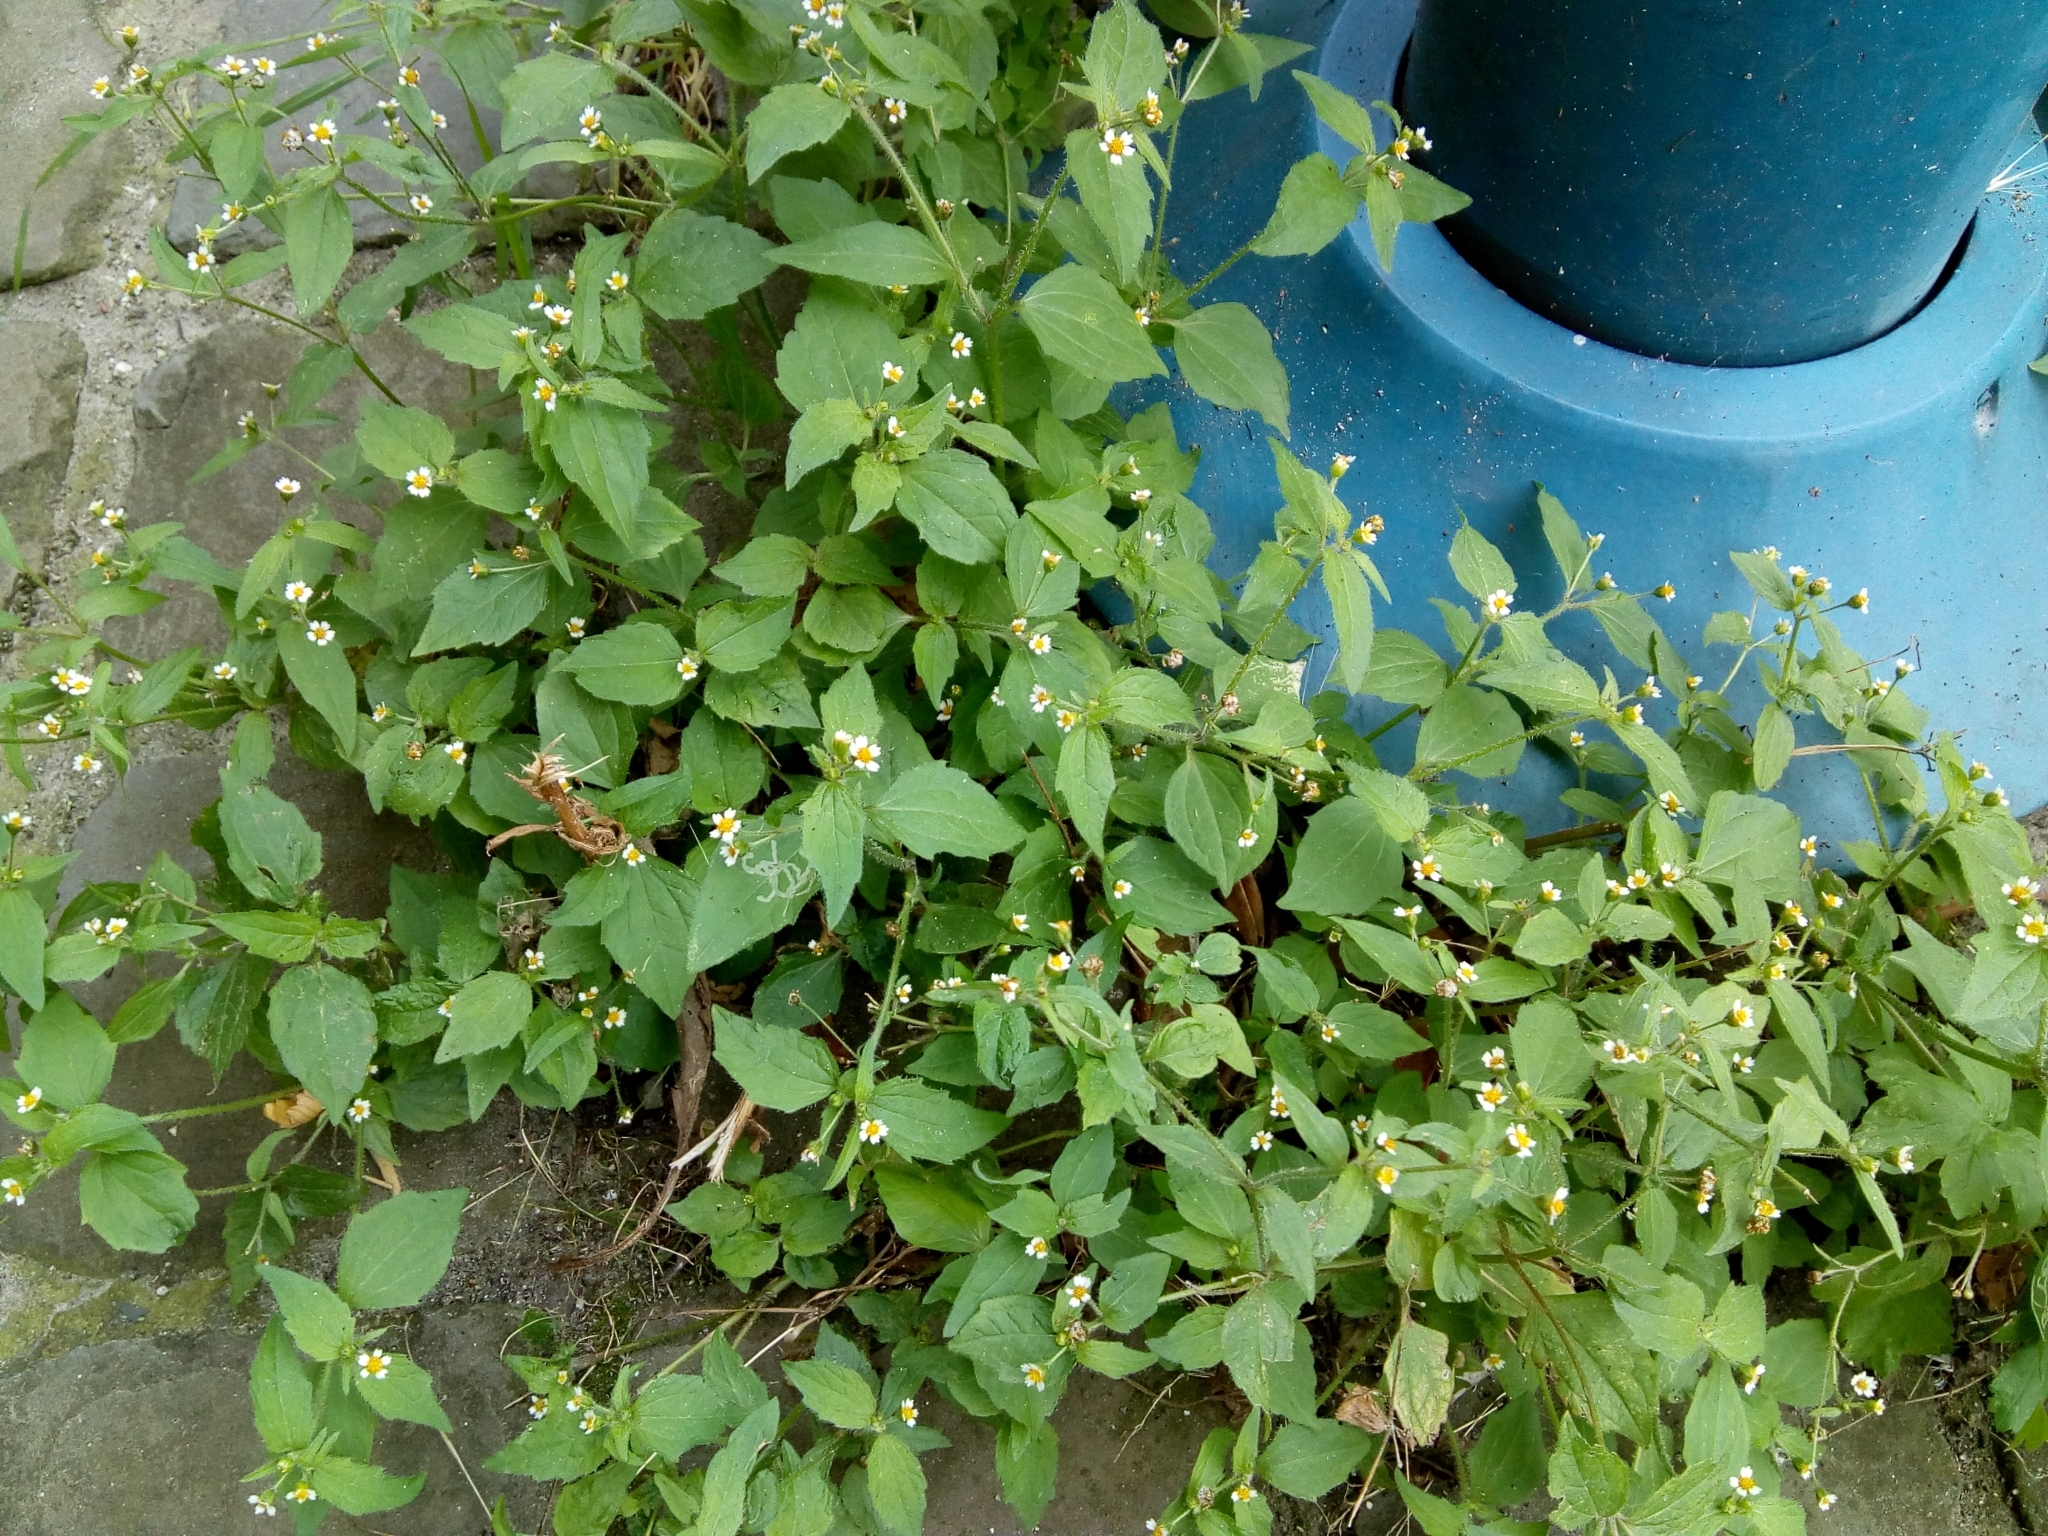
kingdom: Plantae
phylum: Tracheophyta
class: Magnoliopsida
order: Asterales
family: Asteraceae
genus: Galinsoga
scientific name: Galinsoga quadriradiata
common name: Shaggy soldier
